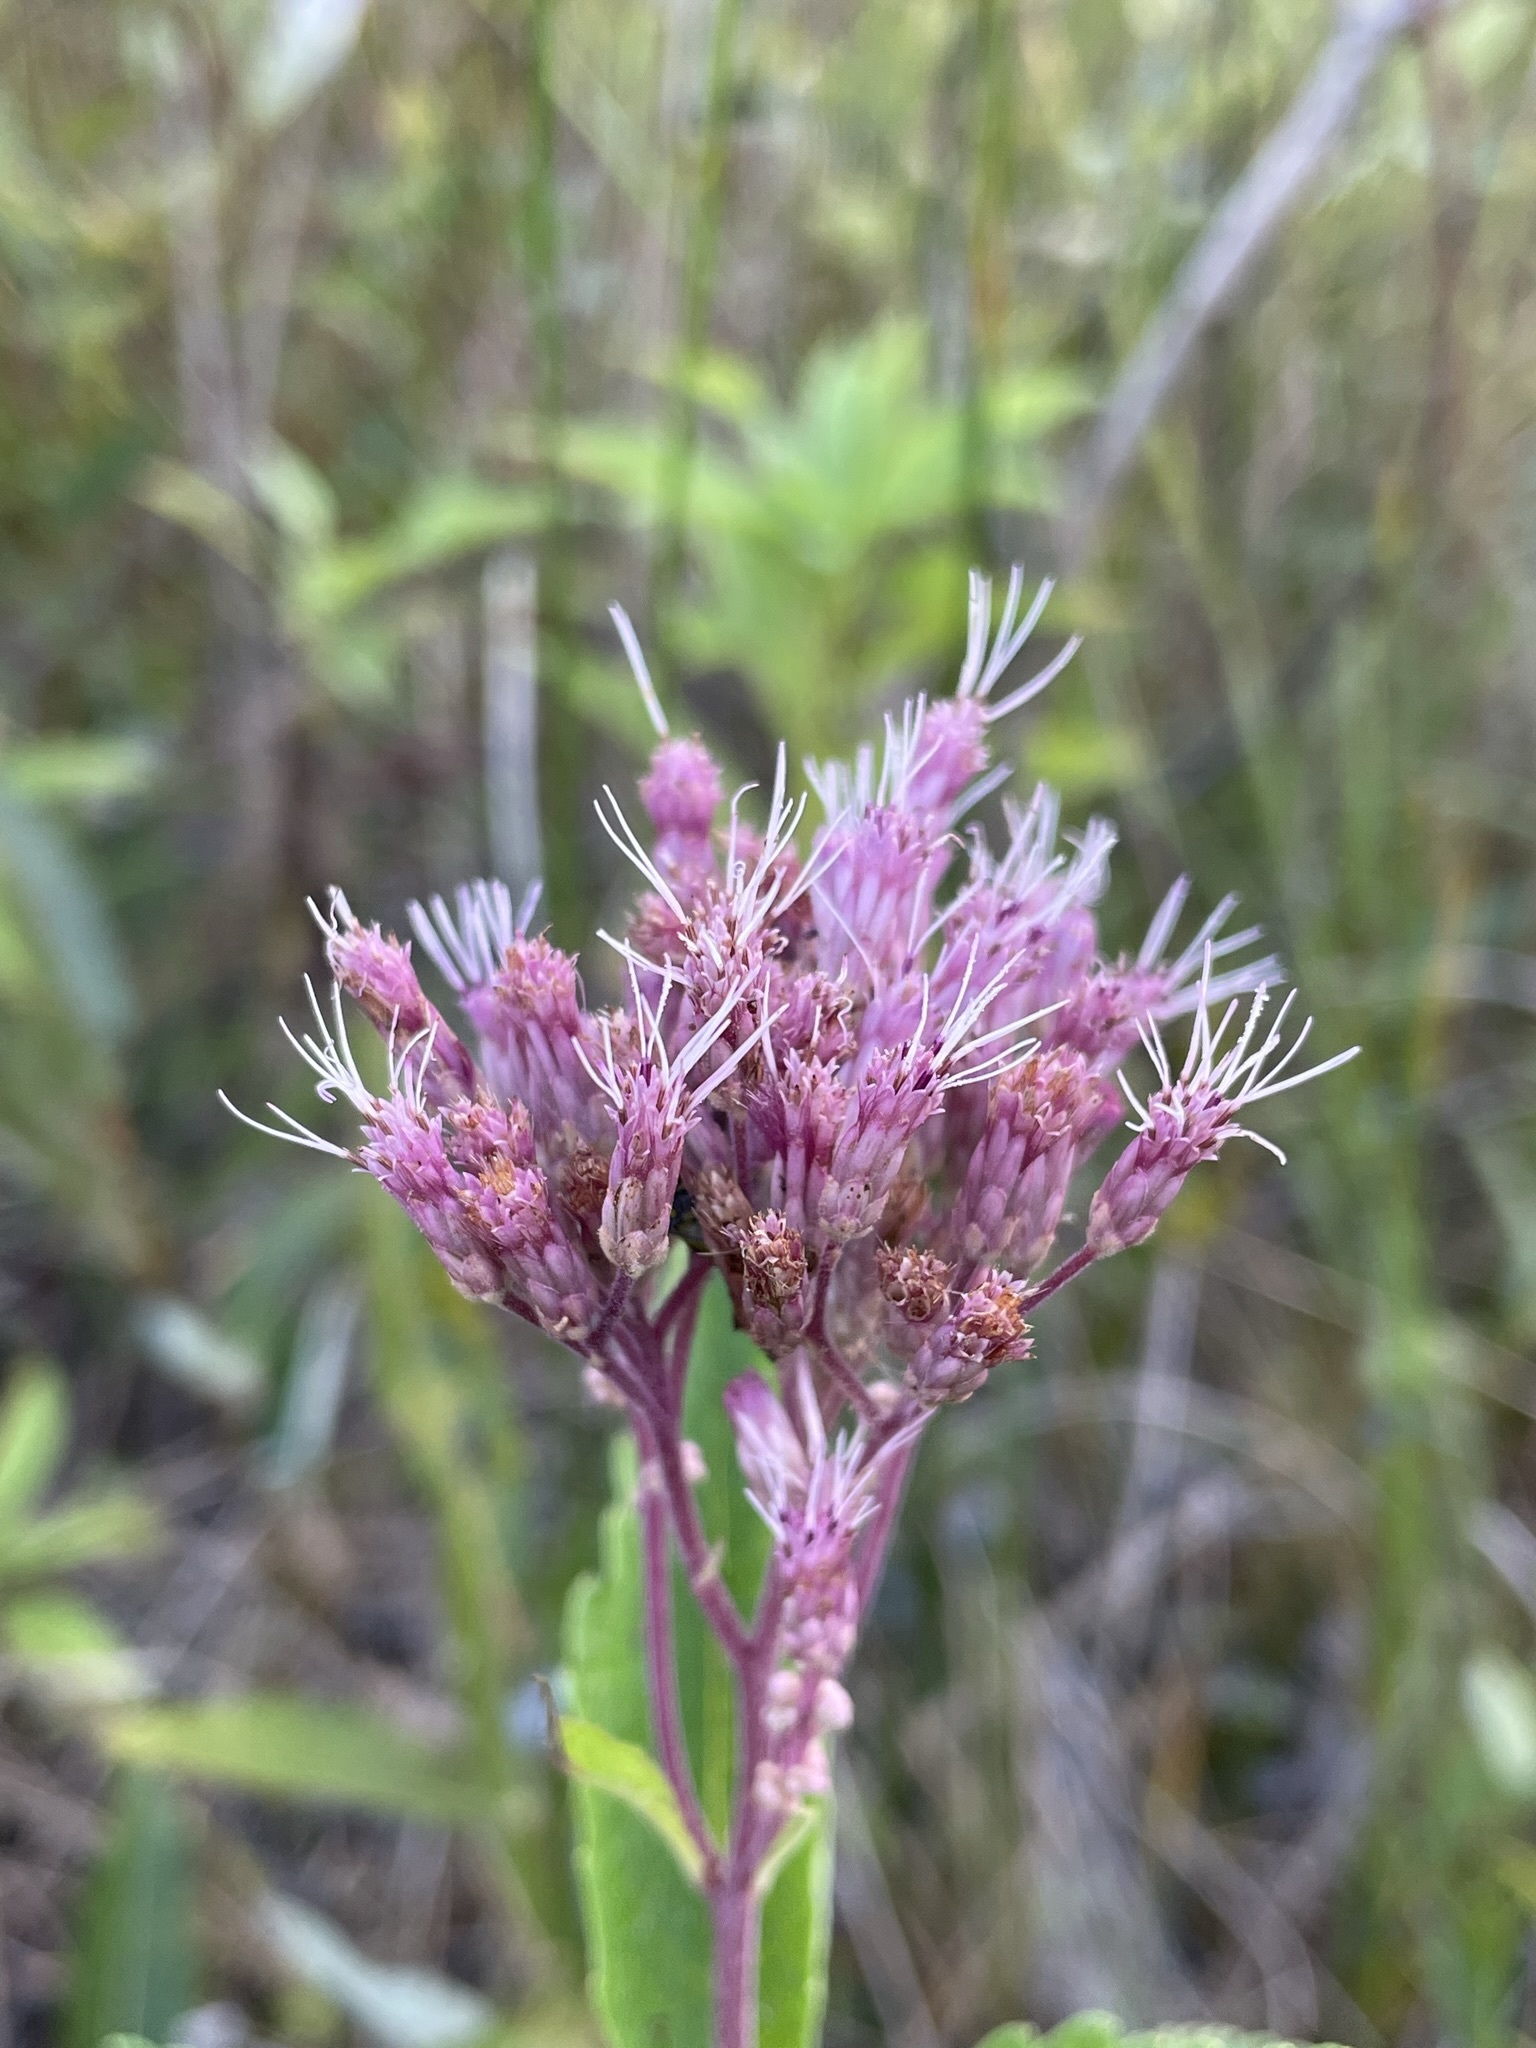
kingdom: Plantae
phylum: Tracheophyta
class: Magnoliopsida
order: Asterales
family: Asteraceae
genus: Eutrochium
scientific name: Eutrochium maculatum
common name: Spotted joe pye weed
